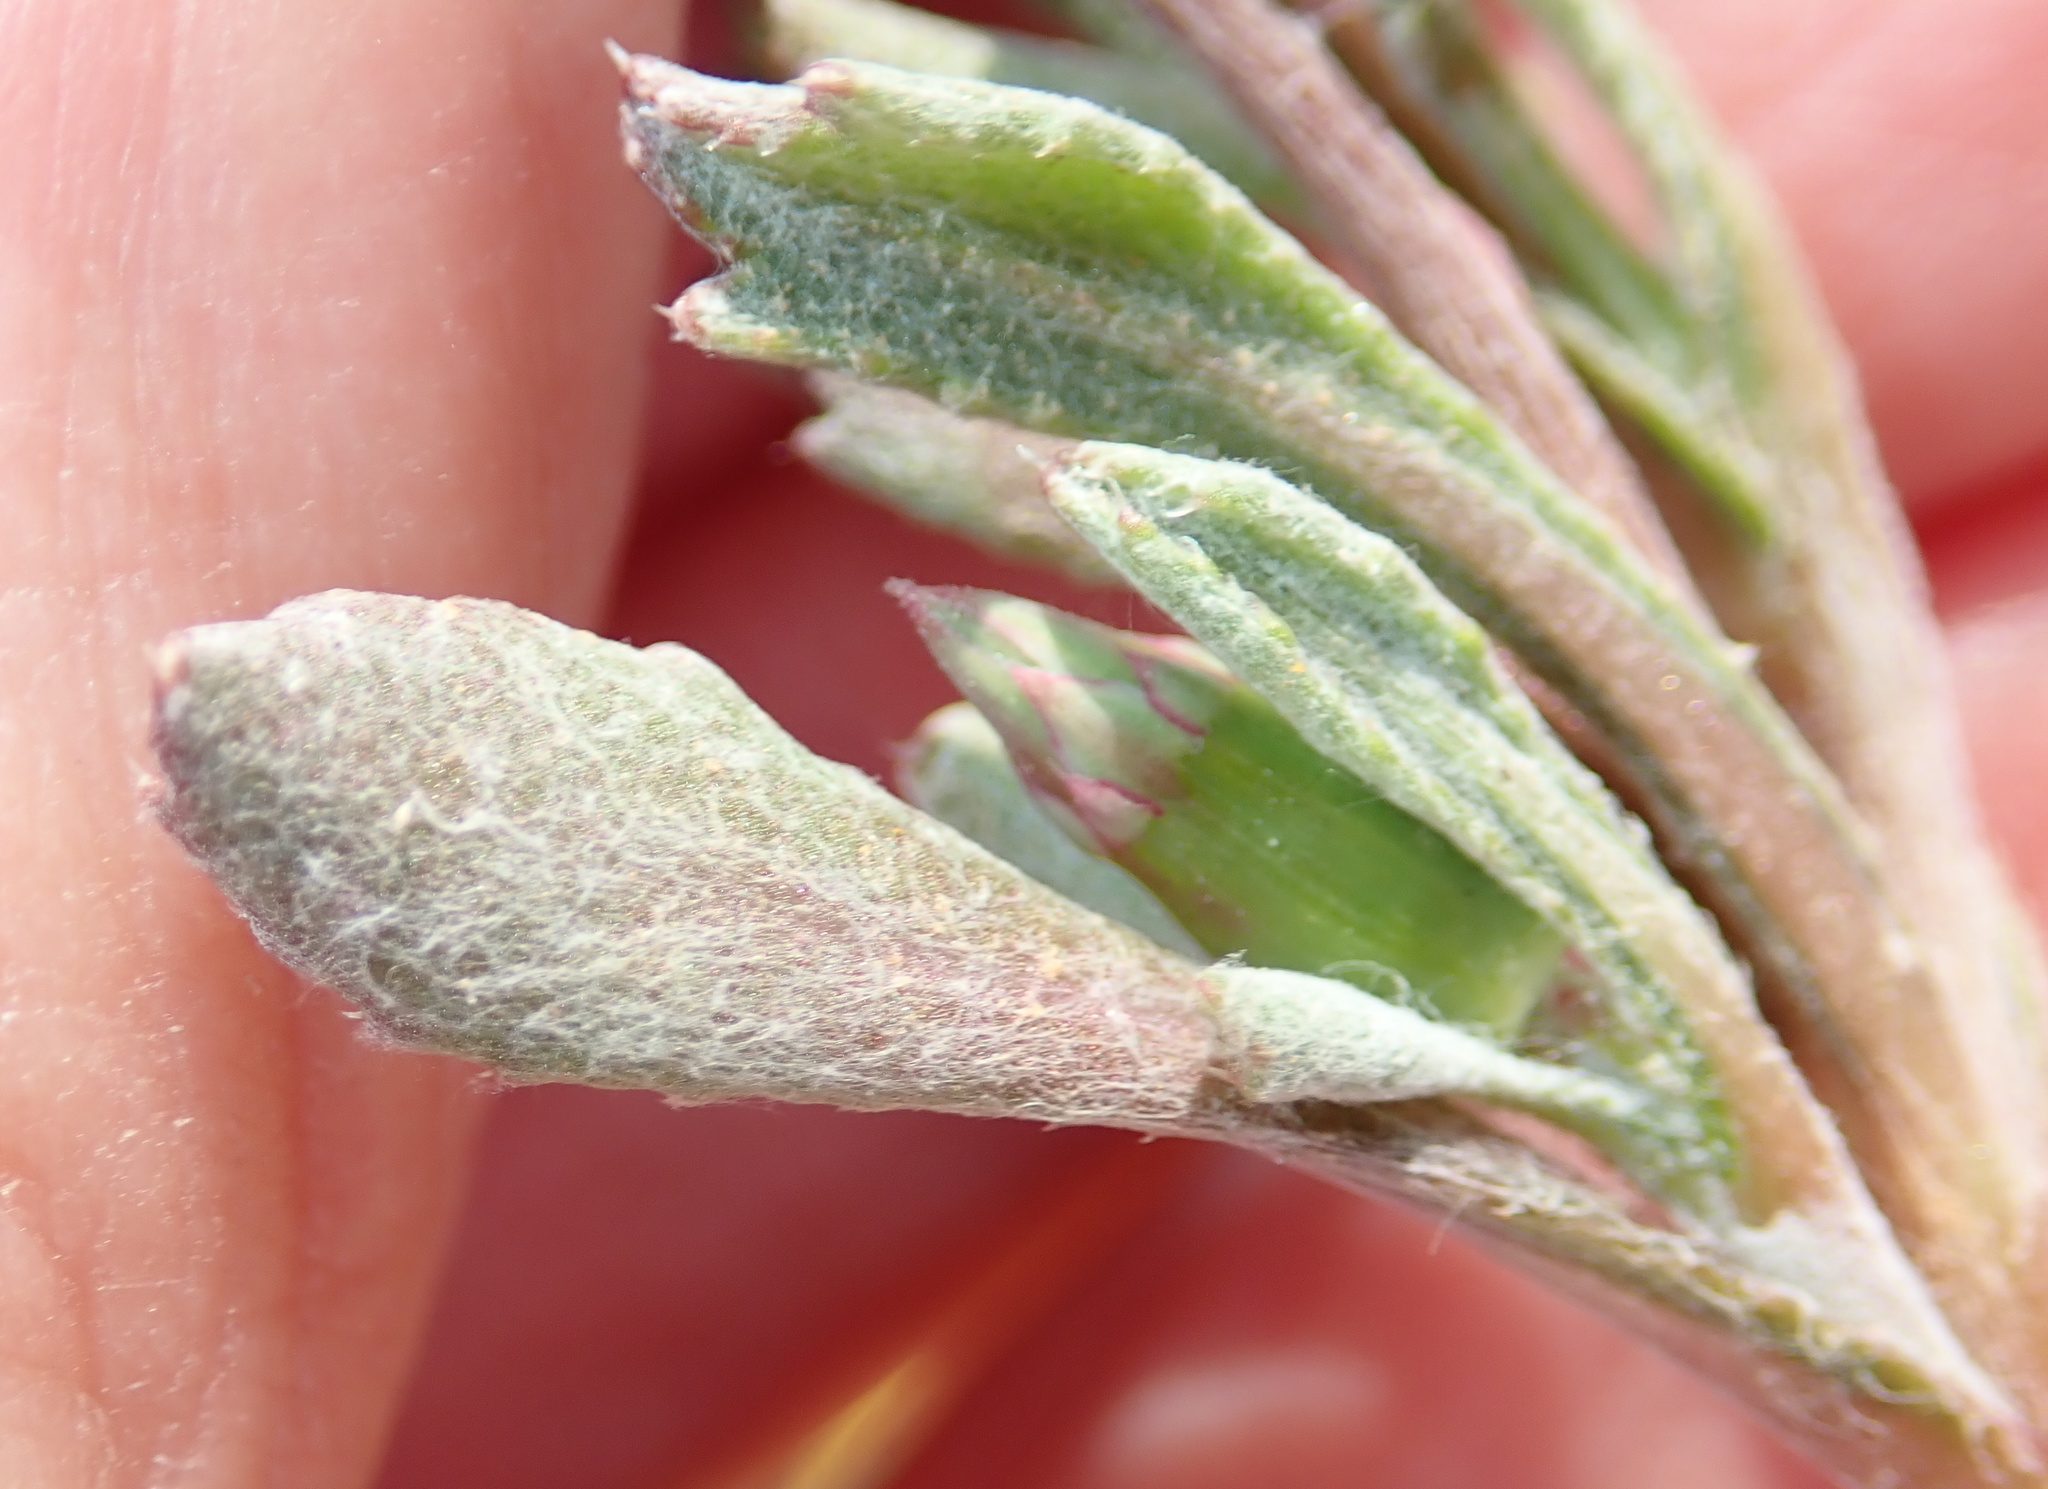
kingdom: Plantae
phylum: Tracheophyta
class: Magnoliopsida
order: Asterales
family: Asteraceae
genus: Gazania
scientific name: Gazania lichtensteinii
